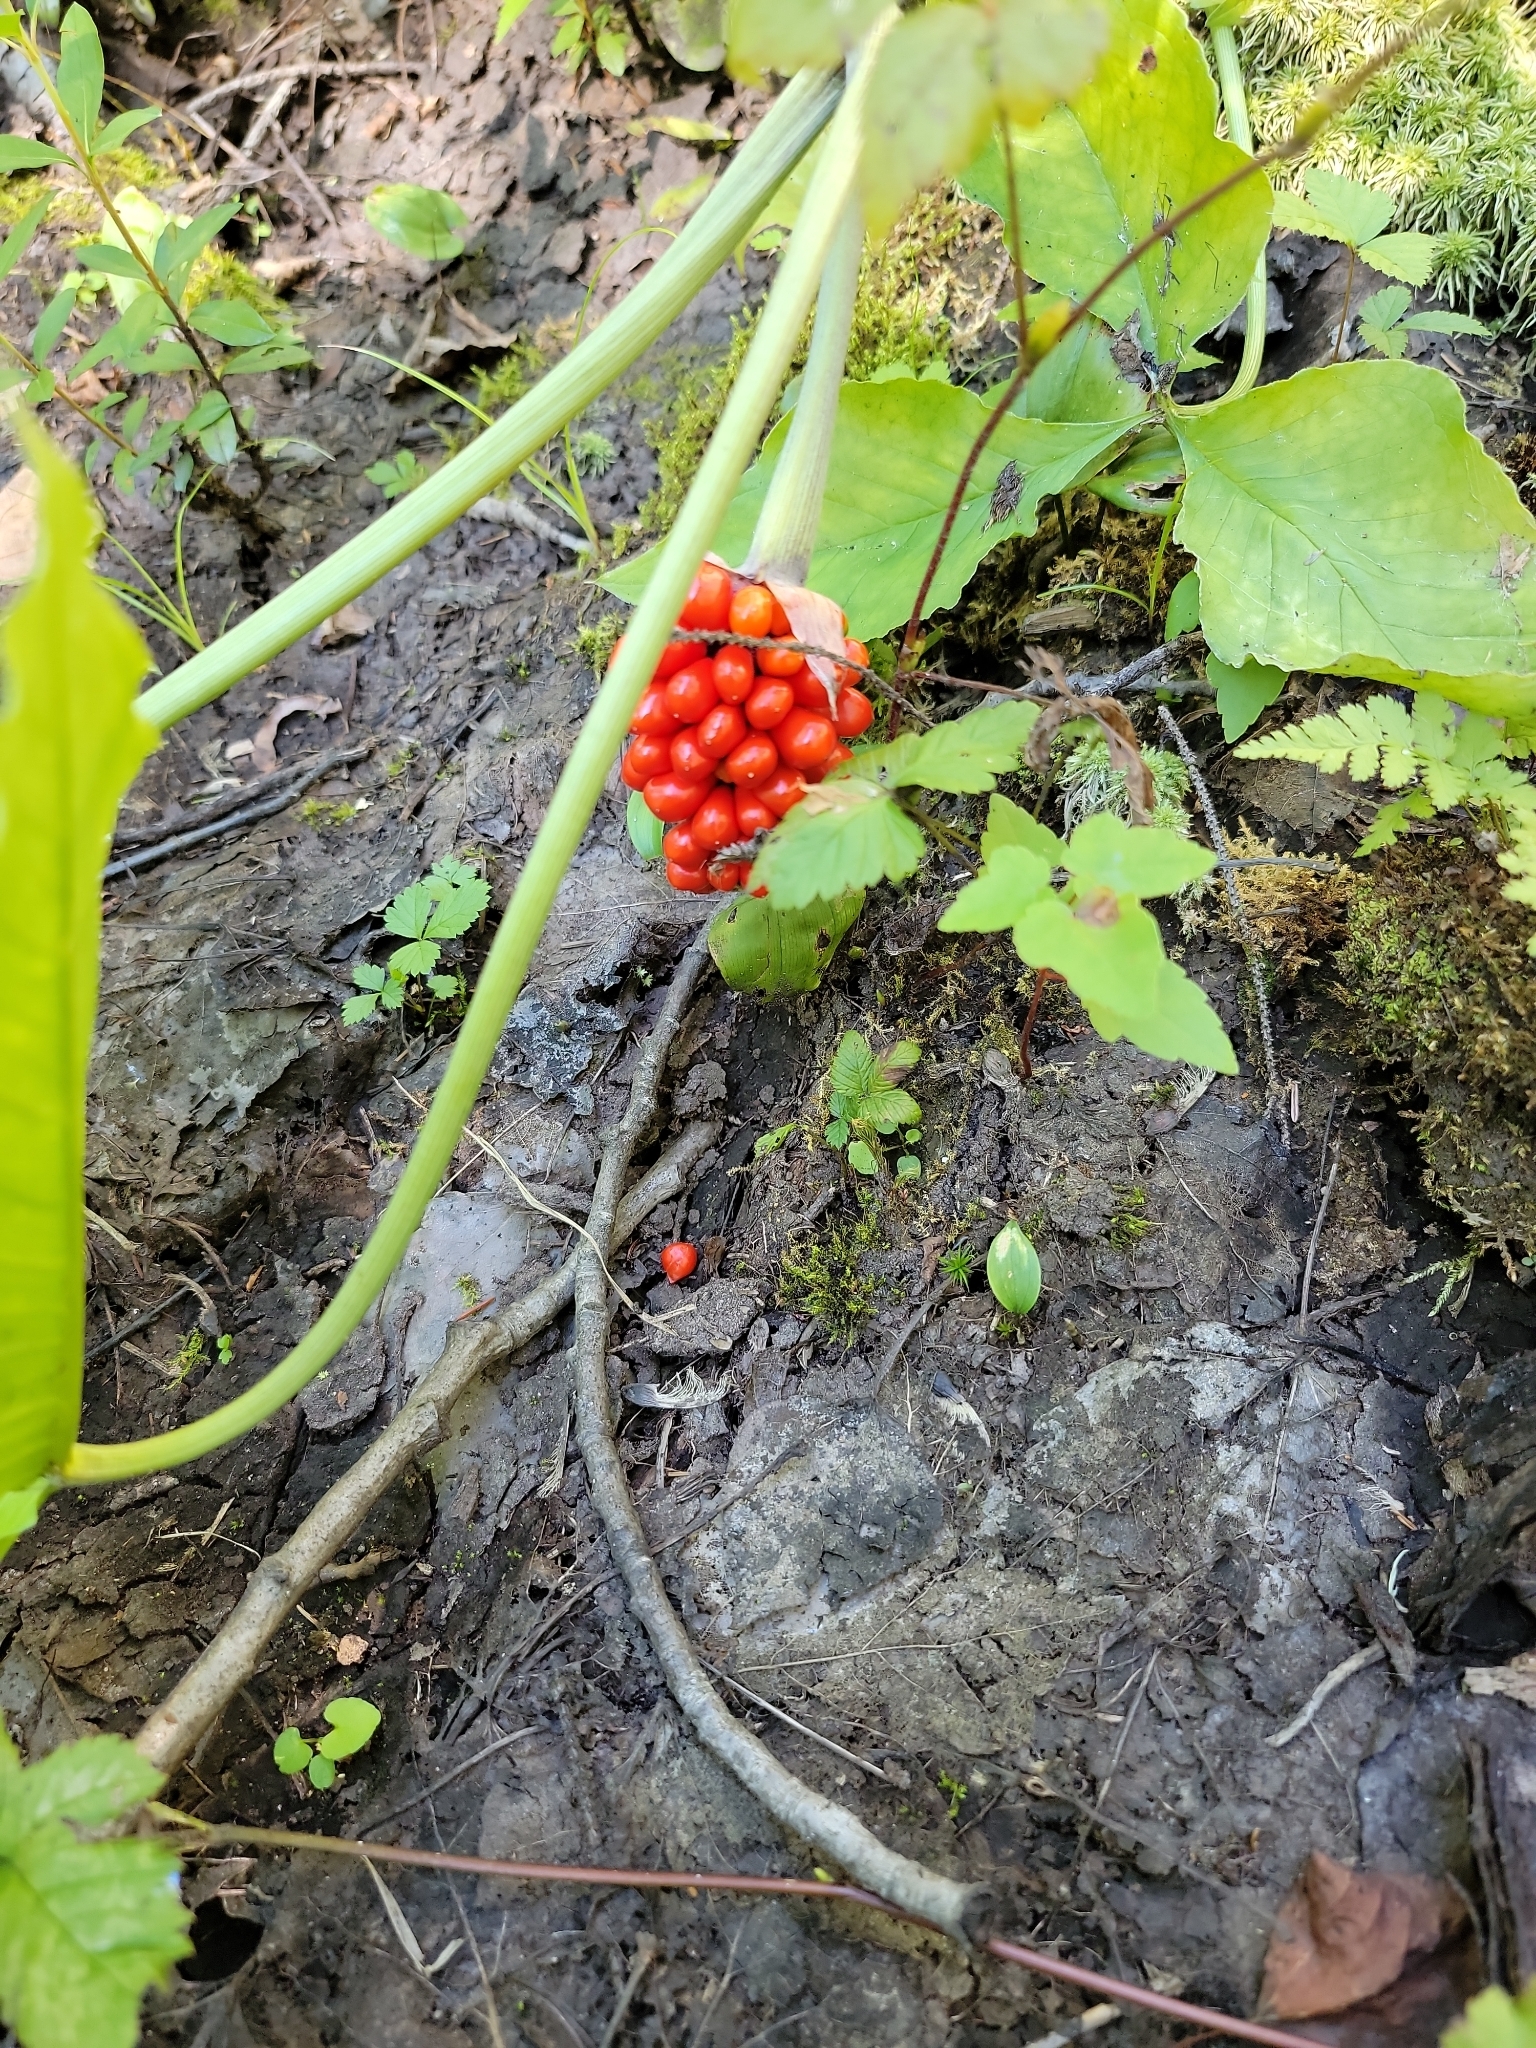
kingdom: Plantae
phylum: Tracheophyta
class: Liliopsida
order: Alismatales
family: Araceae
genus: Arisaema
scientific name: Arisaema
